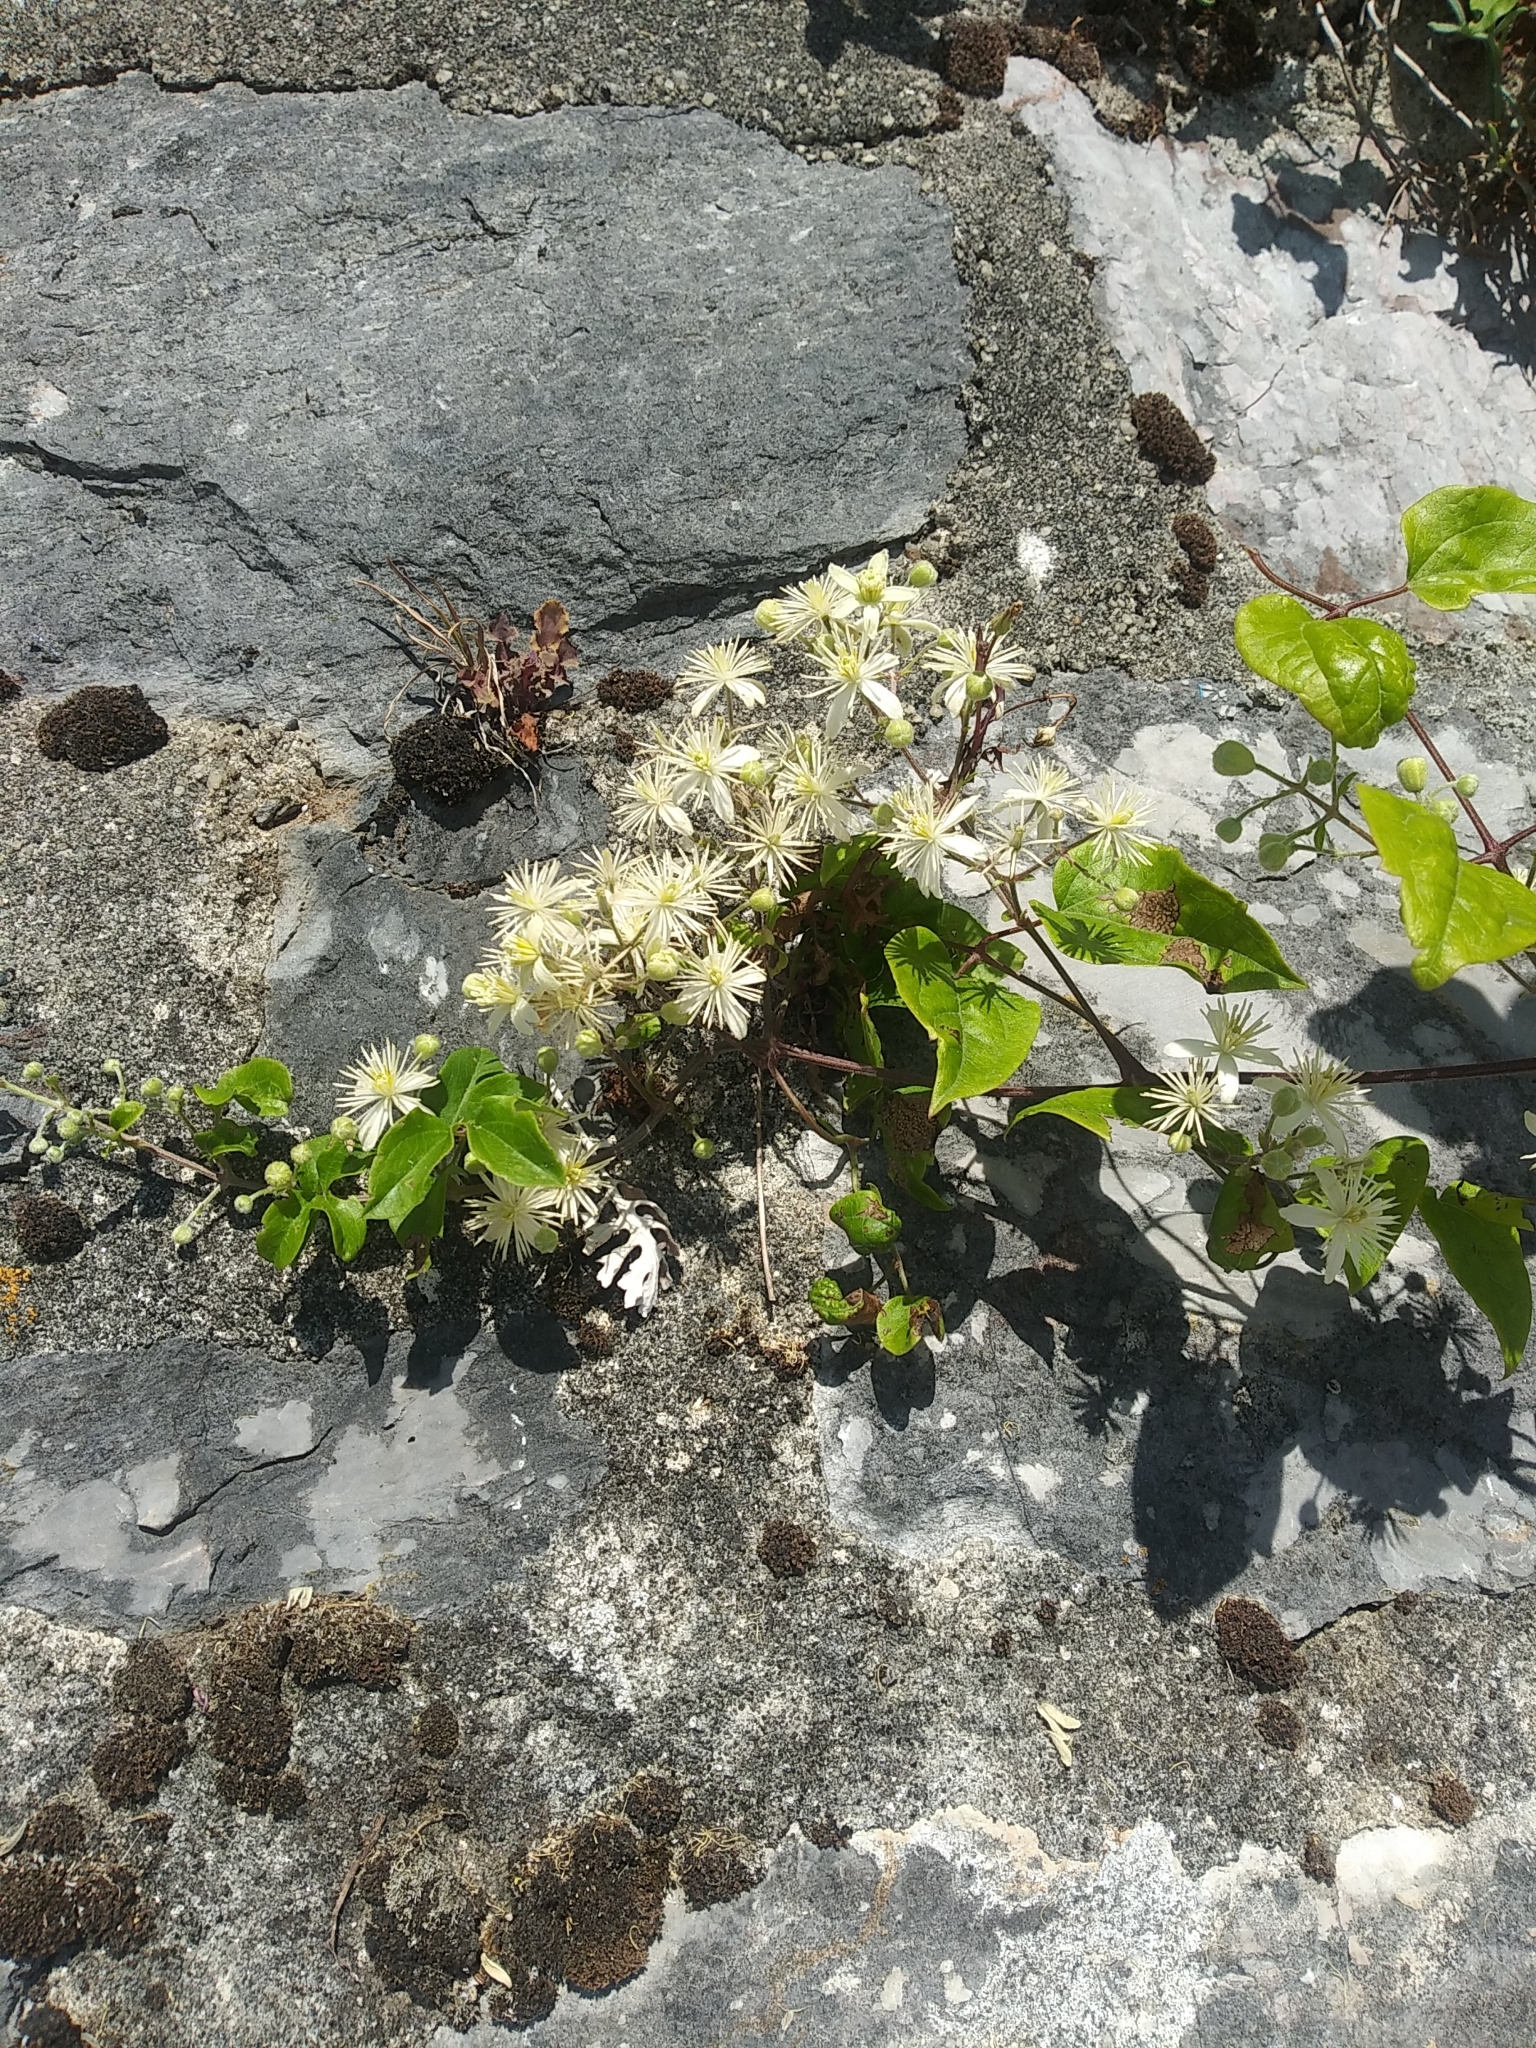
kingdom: Plantae
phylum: Tracheophyta
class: Magnoliopsida
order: Ranunculales
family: Ranunculaceae
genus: Clematis
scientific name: Clematis vitalba
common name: Evergreen clematis
